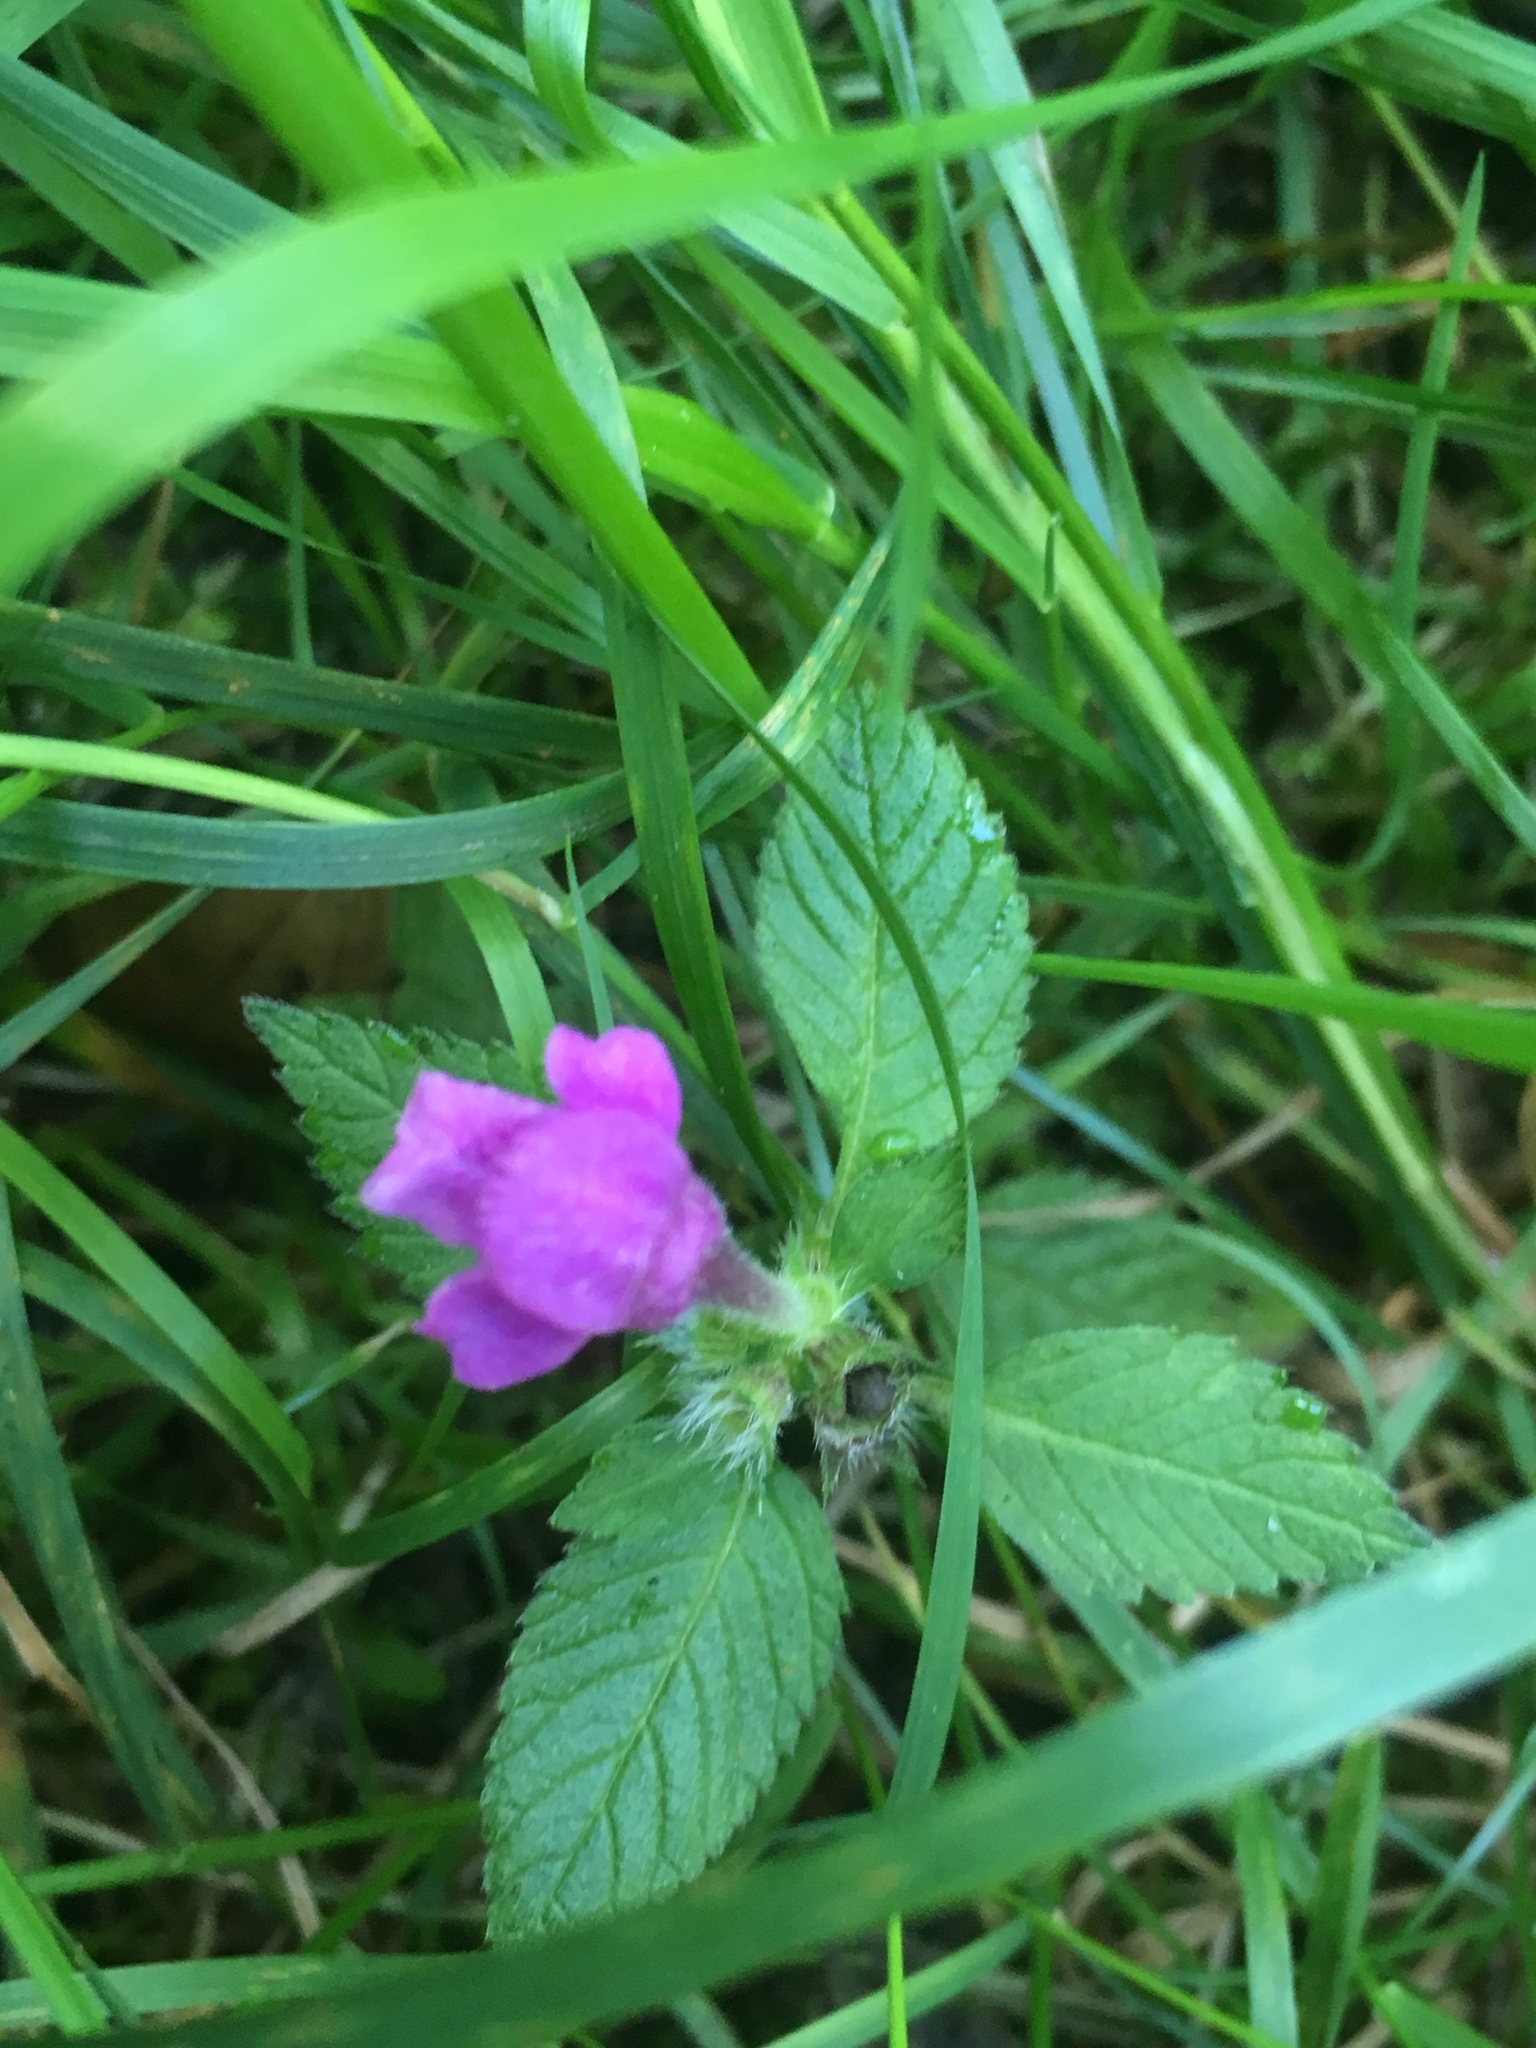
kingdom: Plantae
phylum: Tracheophyta
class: Magnoliopsida
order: Lamiales
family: Lamiaceae
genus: Galeopsis
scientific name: Galeopsis pubescens
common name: Downy hemp-nettle
